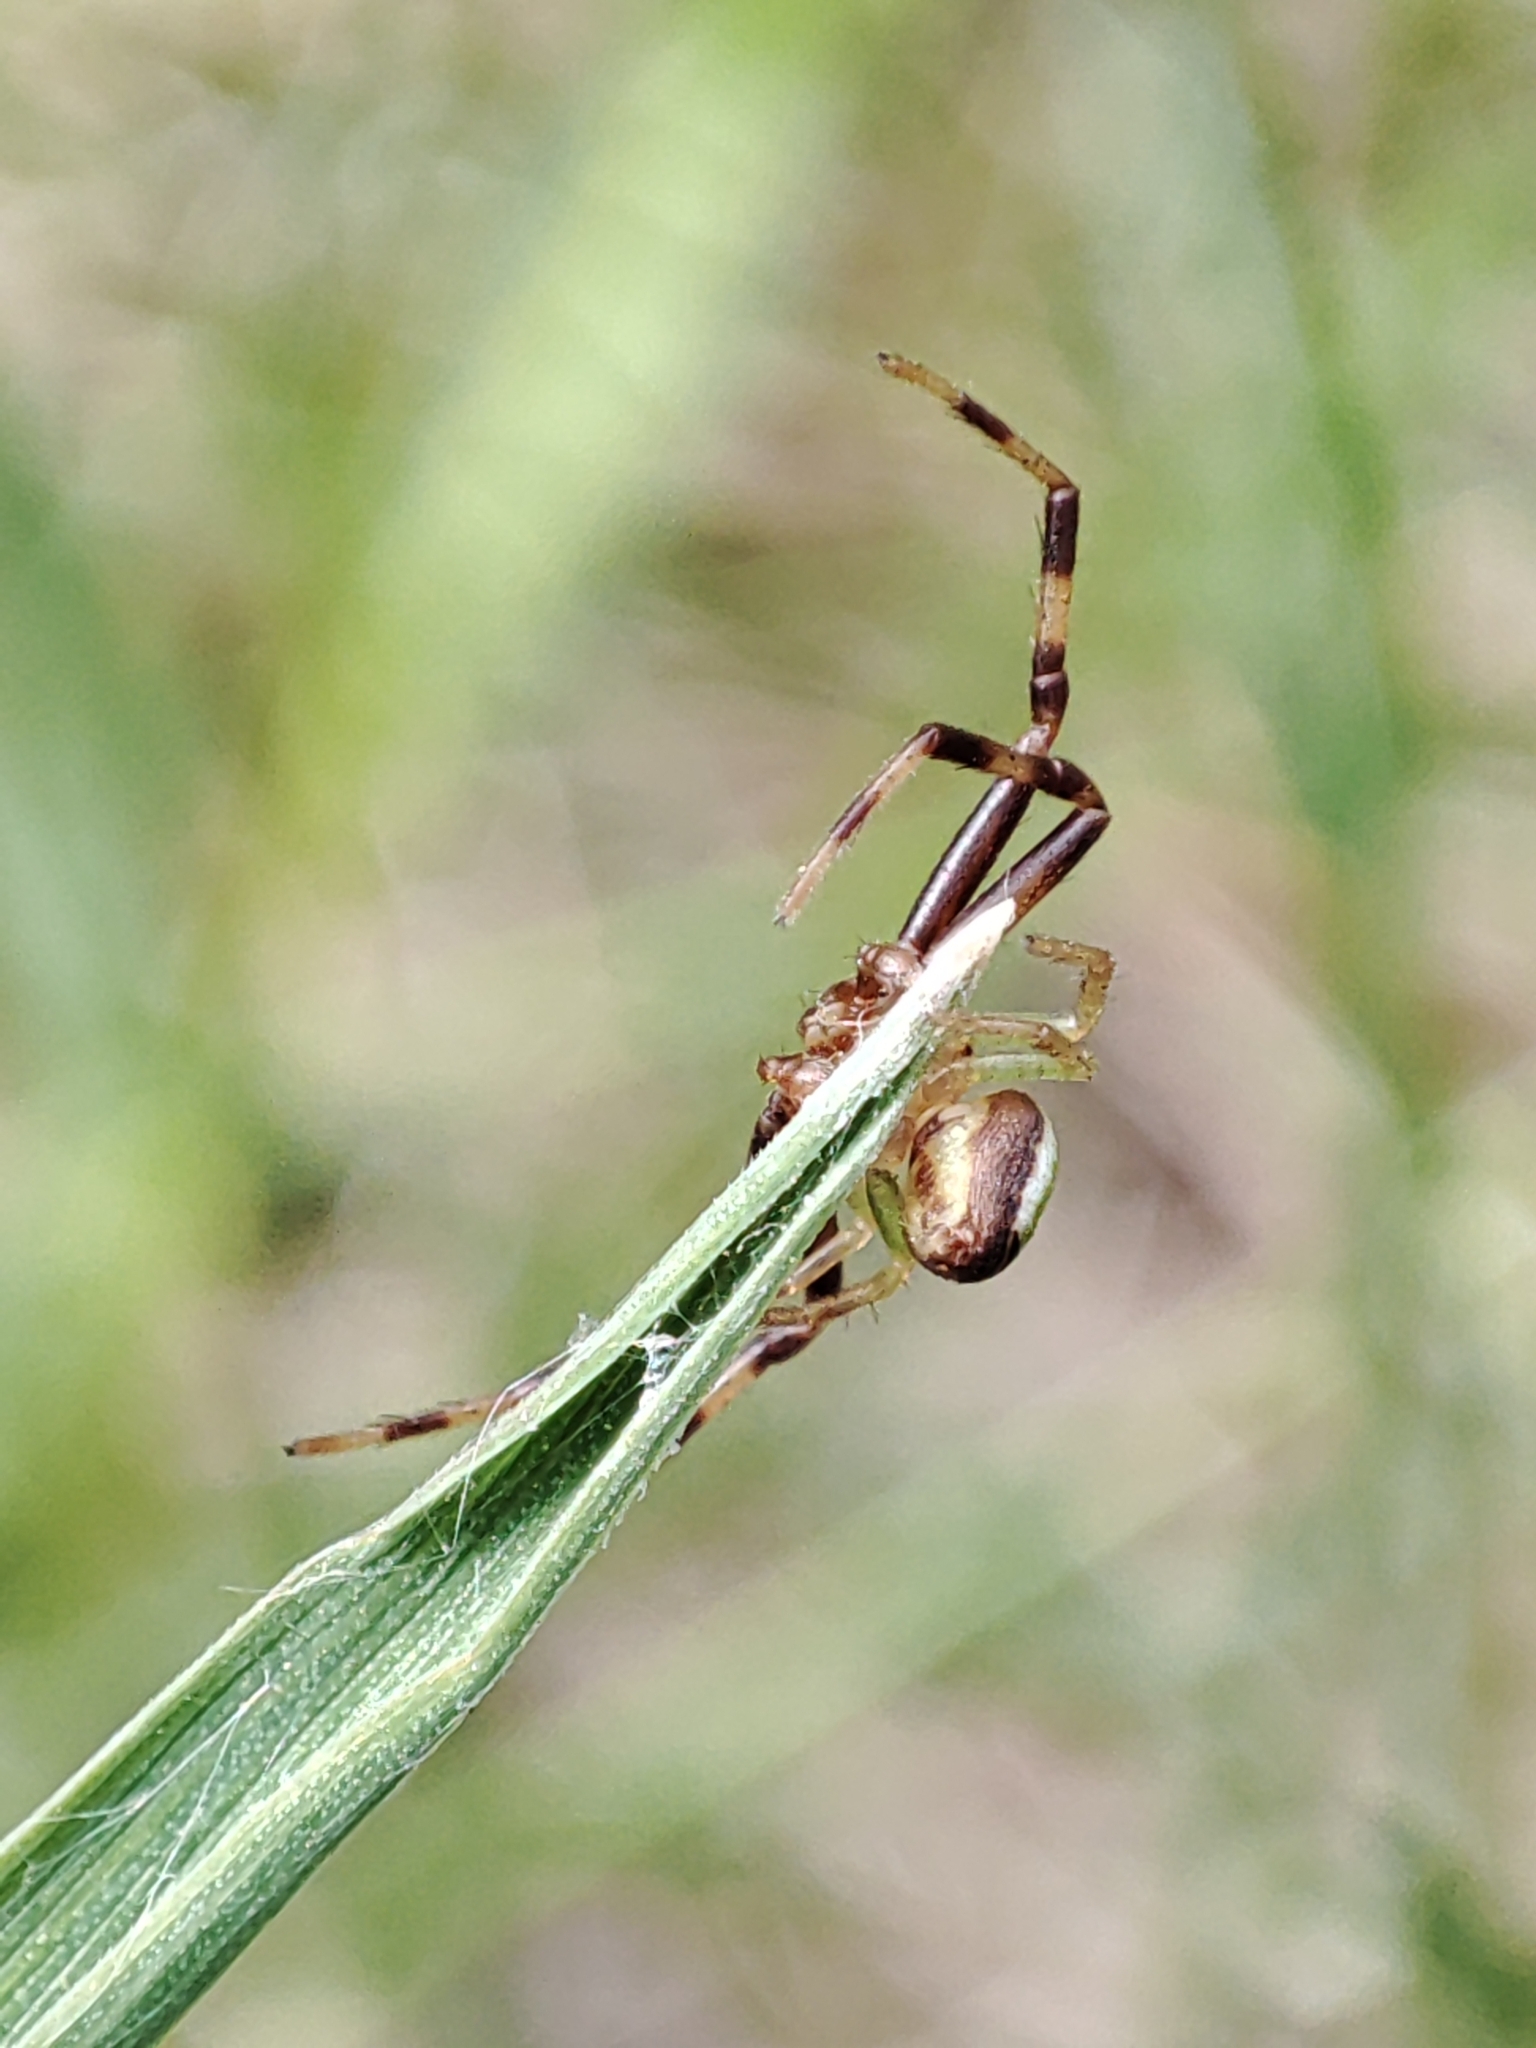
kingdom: Animalia
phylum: Arthropoda
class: Arachnida
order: Araneae
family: Thomisidae
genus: Ebrechtella
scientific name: Ebrechtella tricuspidata
